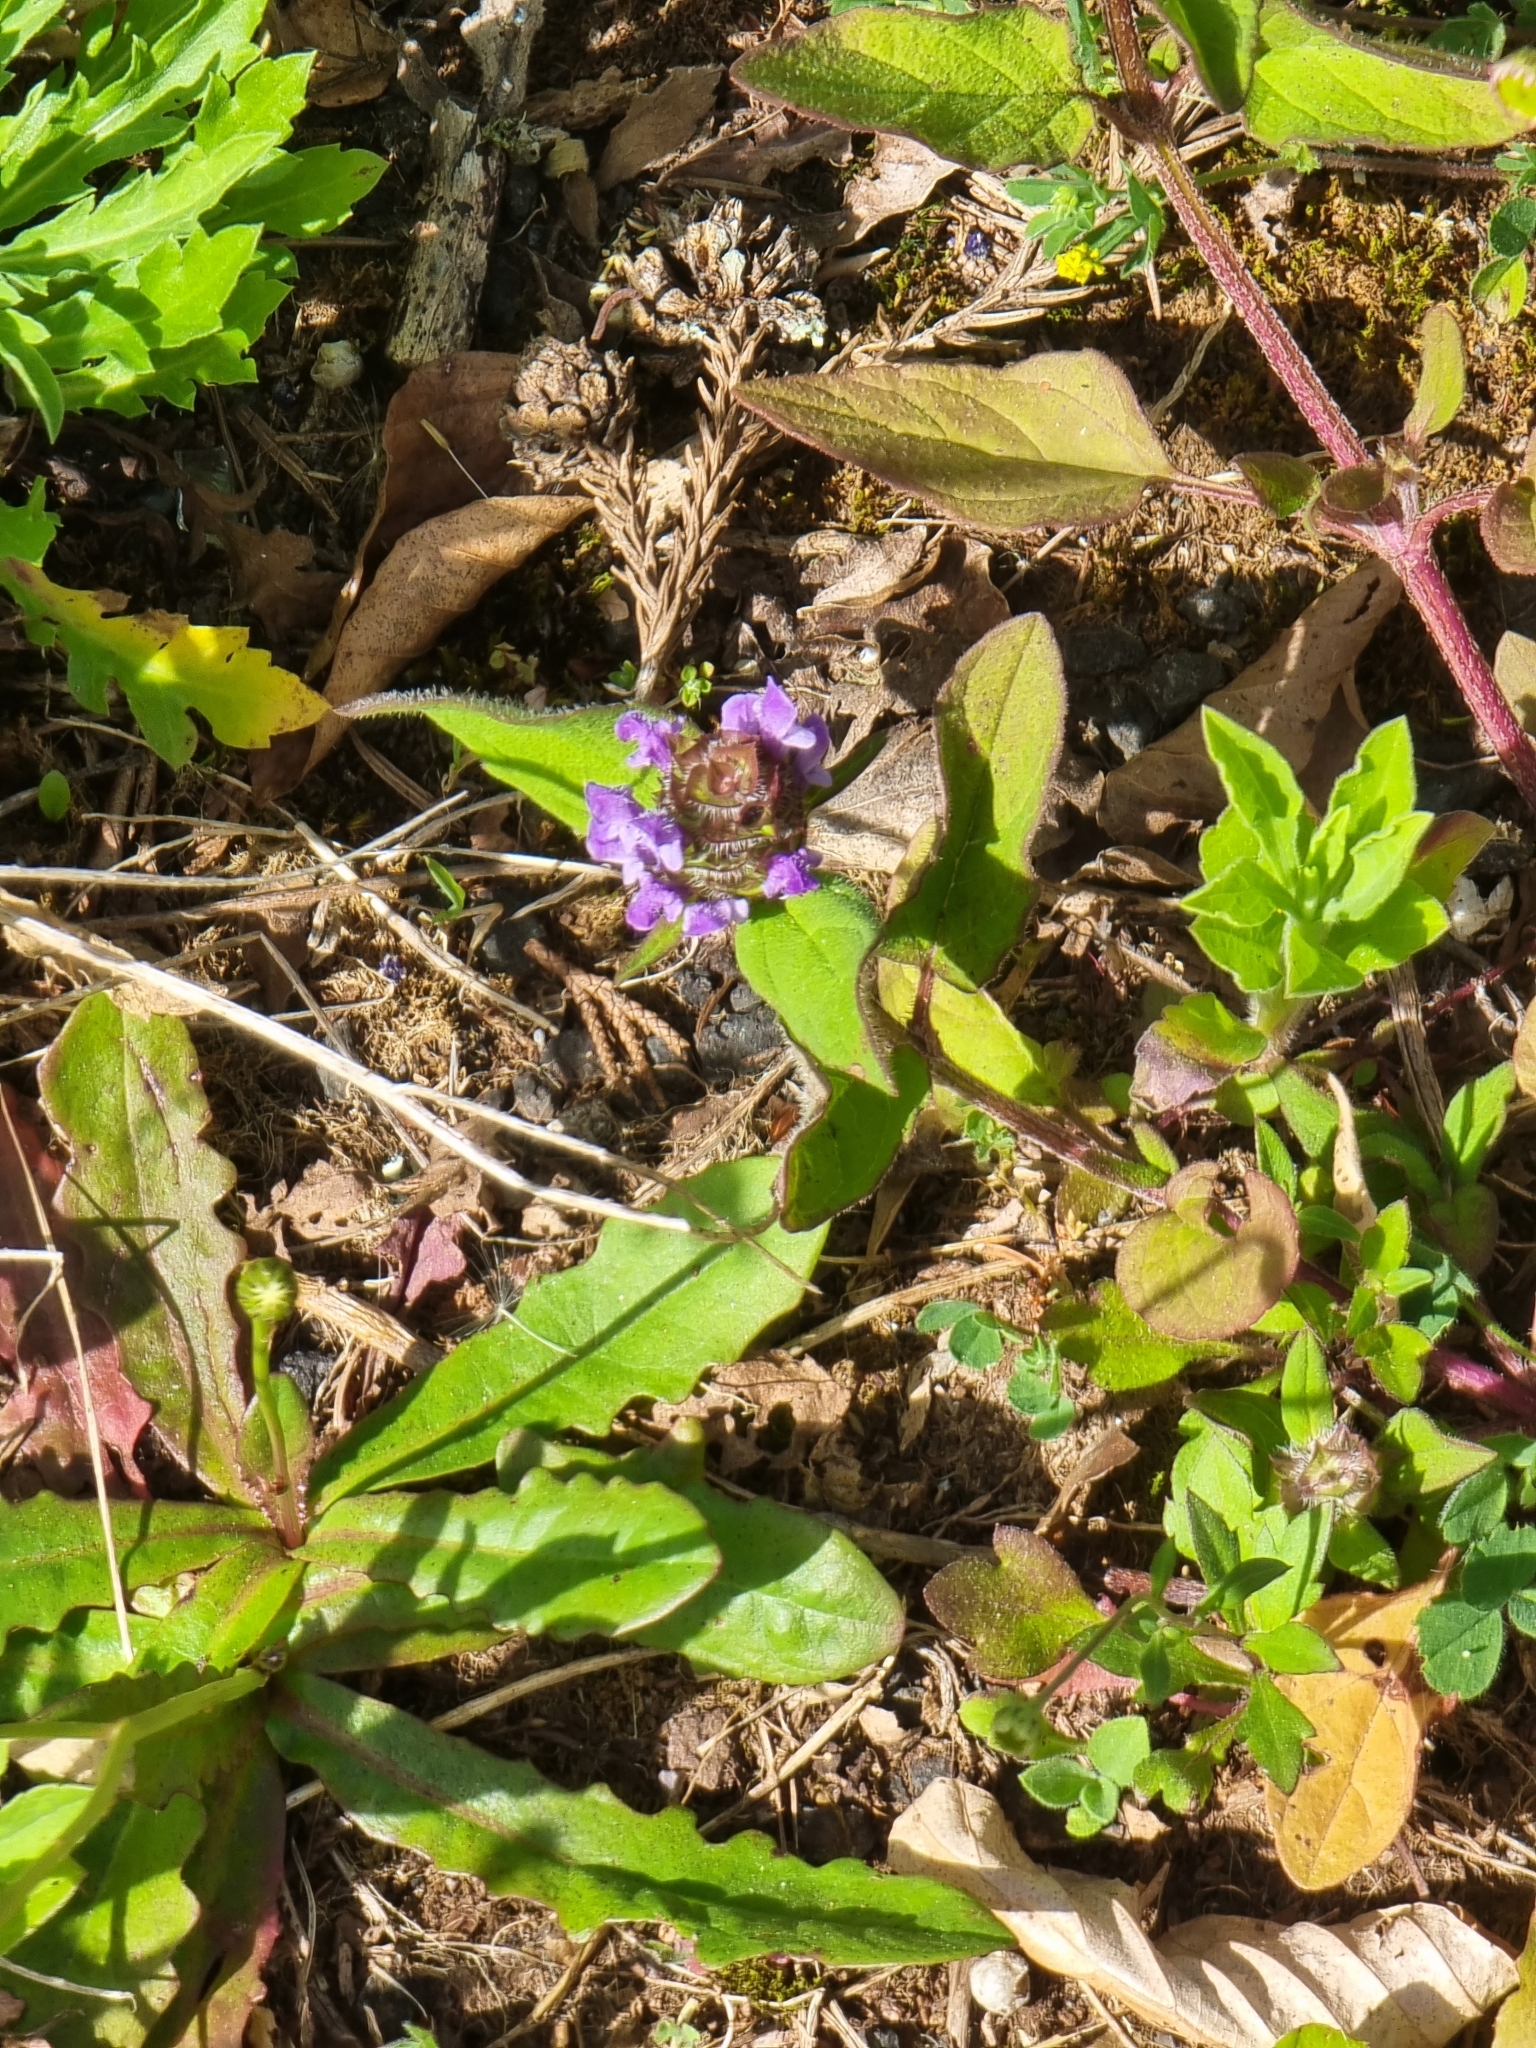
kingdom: Plantae
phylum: Tracheophyta
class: Magnoliopsida
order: Lamiales
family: Lamiaceae
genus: Prunella
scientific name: Prunella vulgaris
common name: Heal-all
